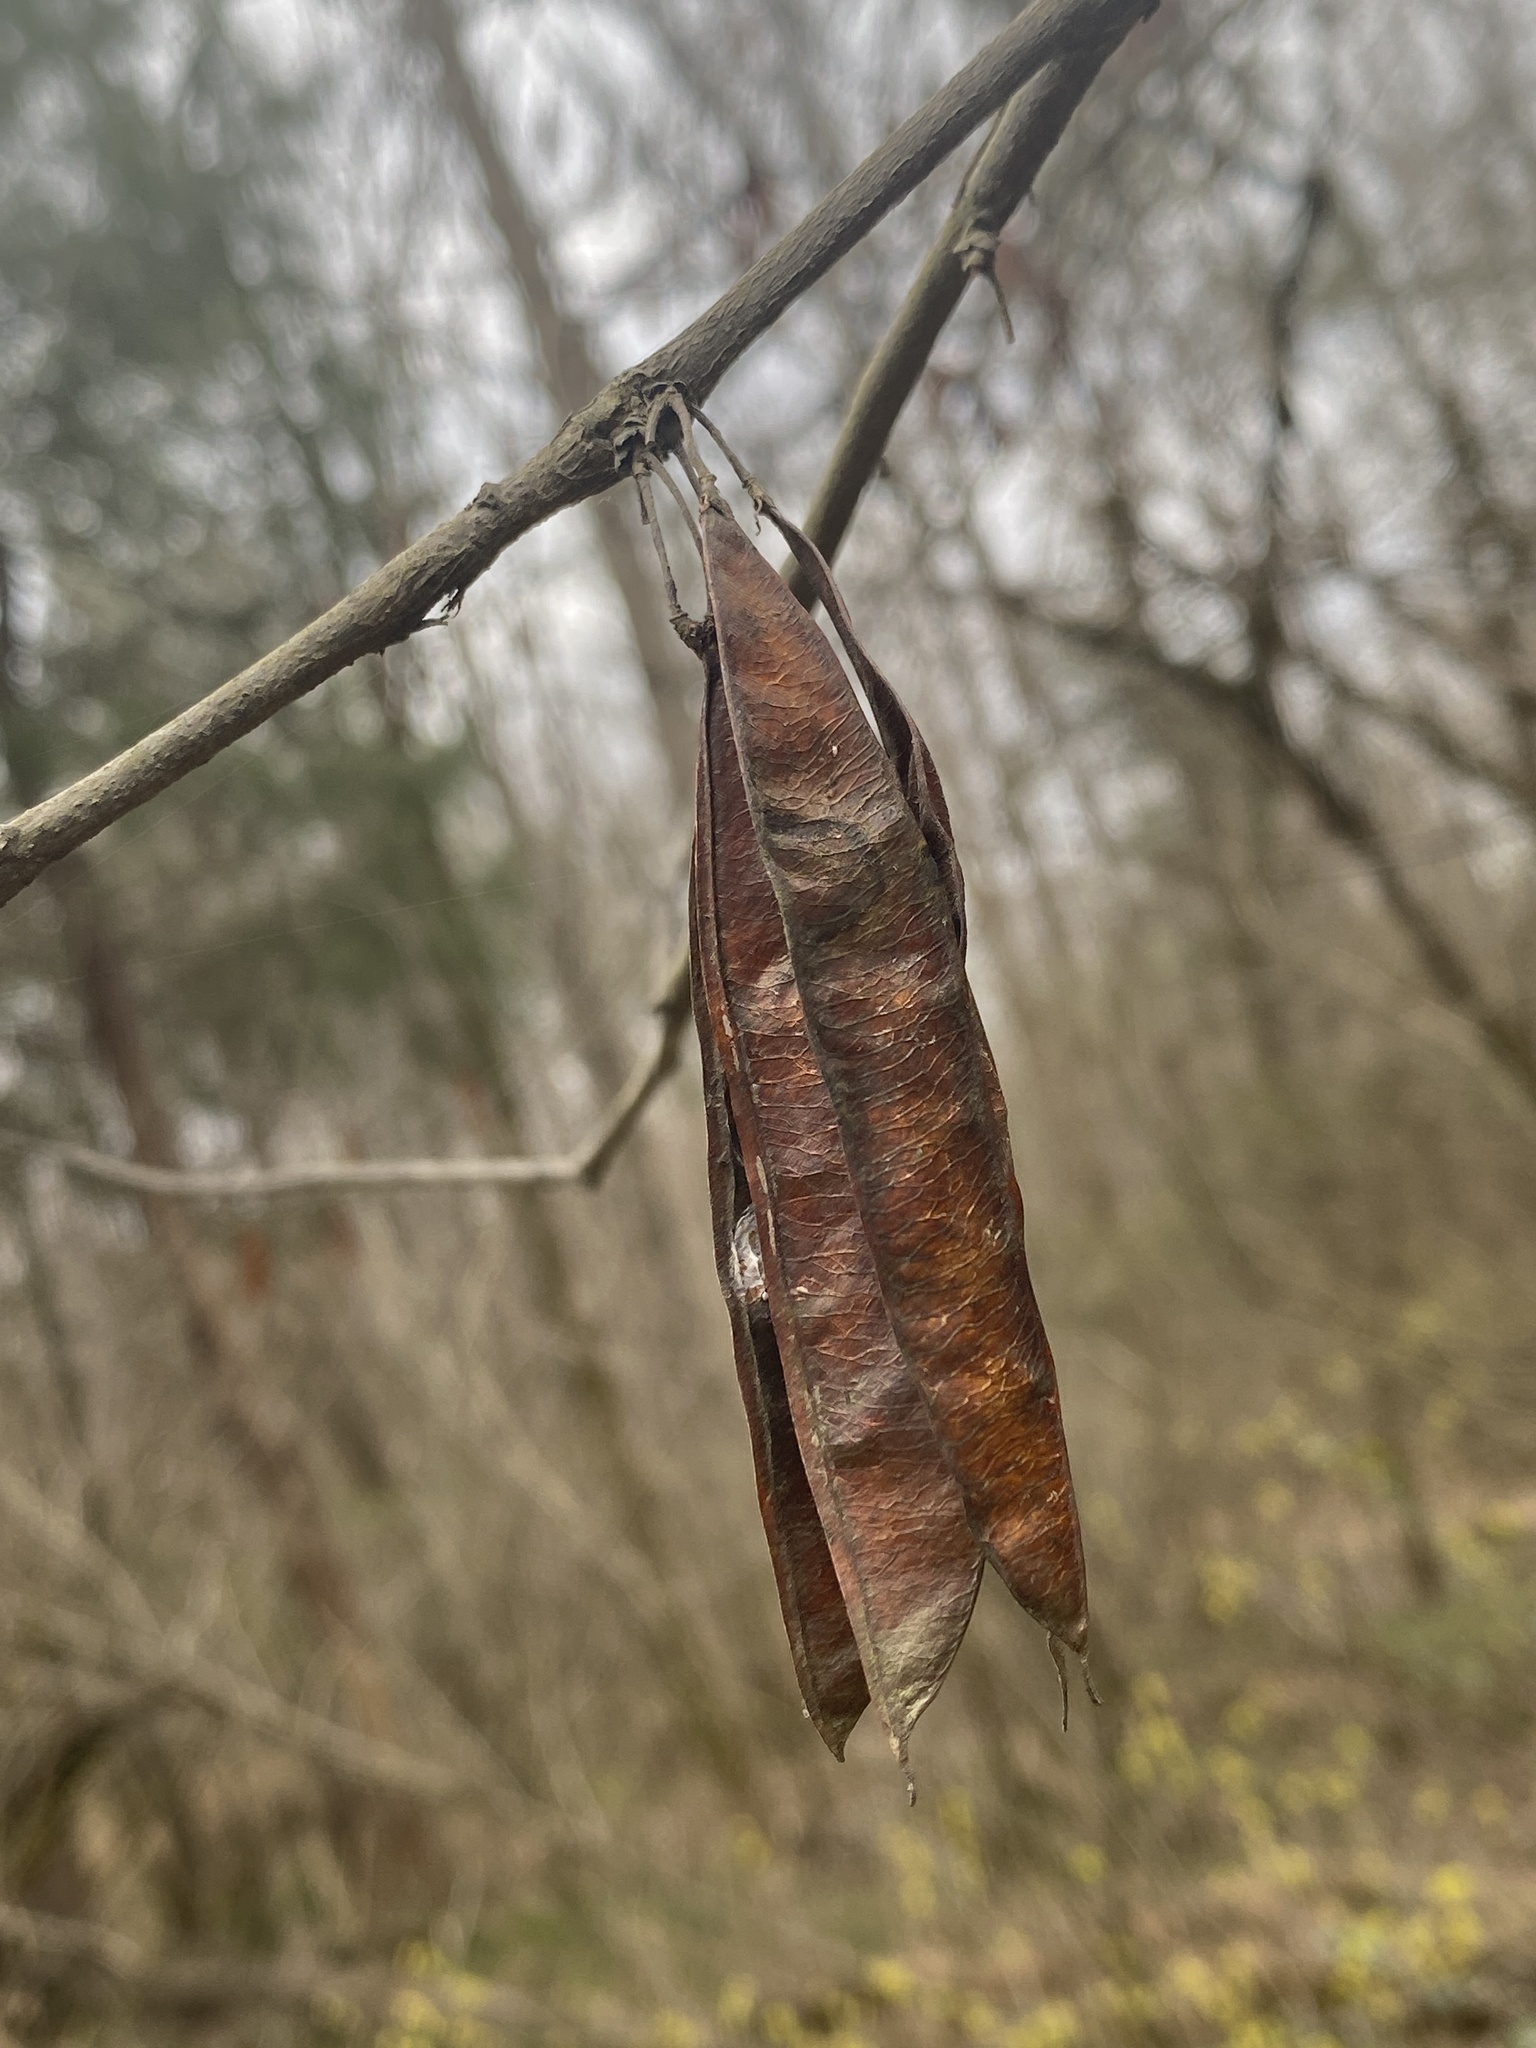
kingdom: Plantae
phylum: Tracheophyta
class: Magnoliopsida
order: Fabales
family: Fabaceae
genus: Cercis
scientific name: Cercis canadensis
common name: Eastern redbud
